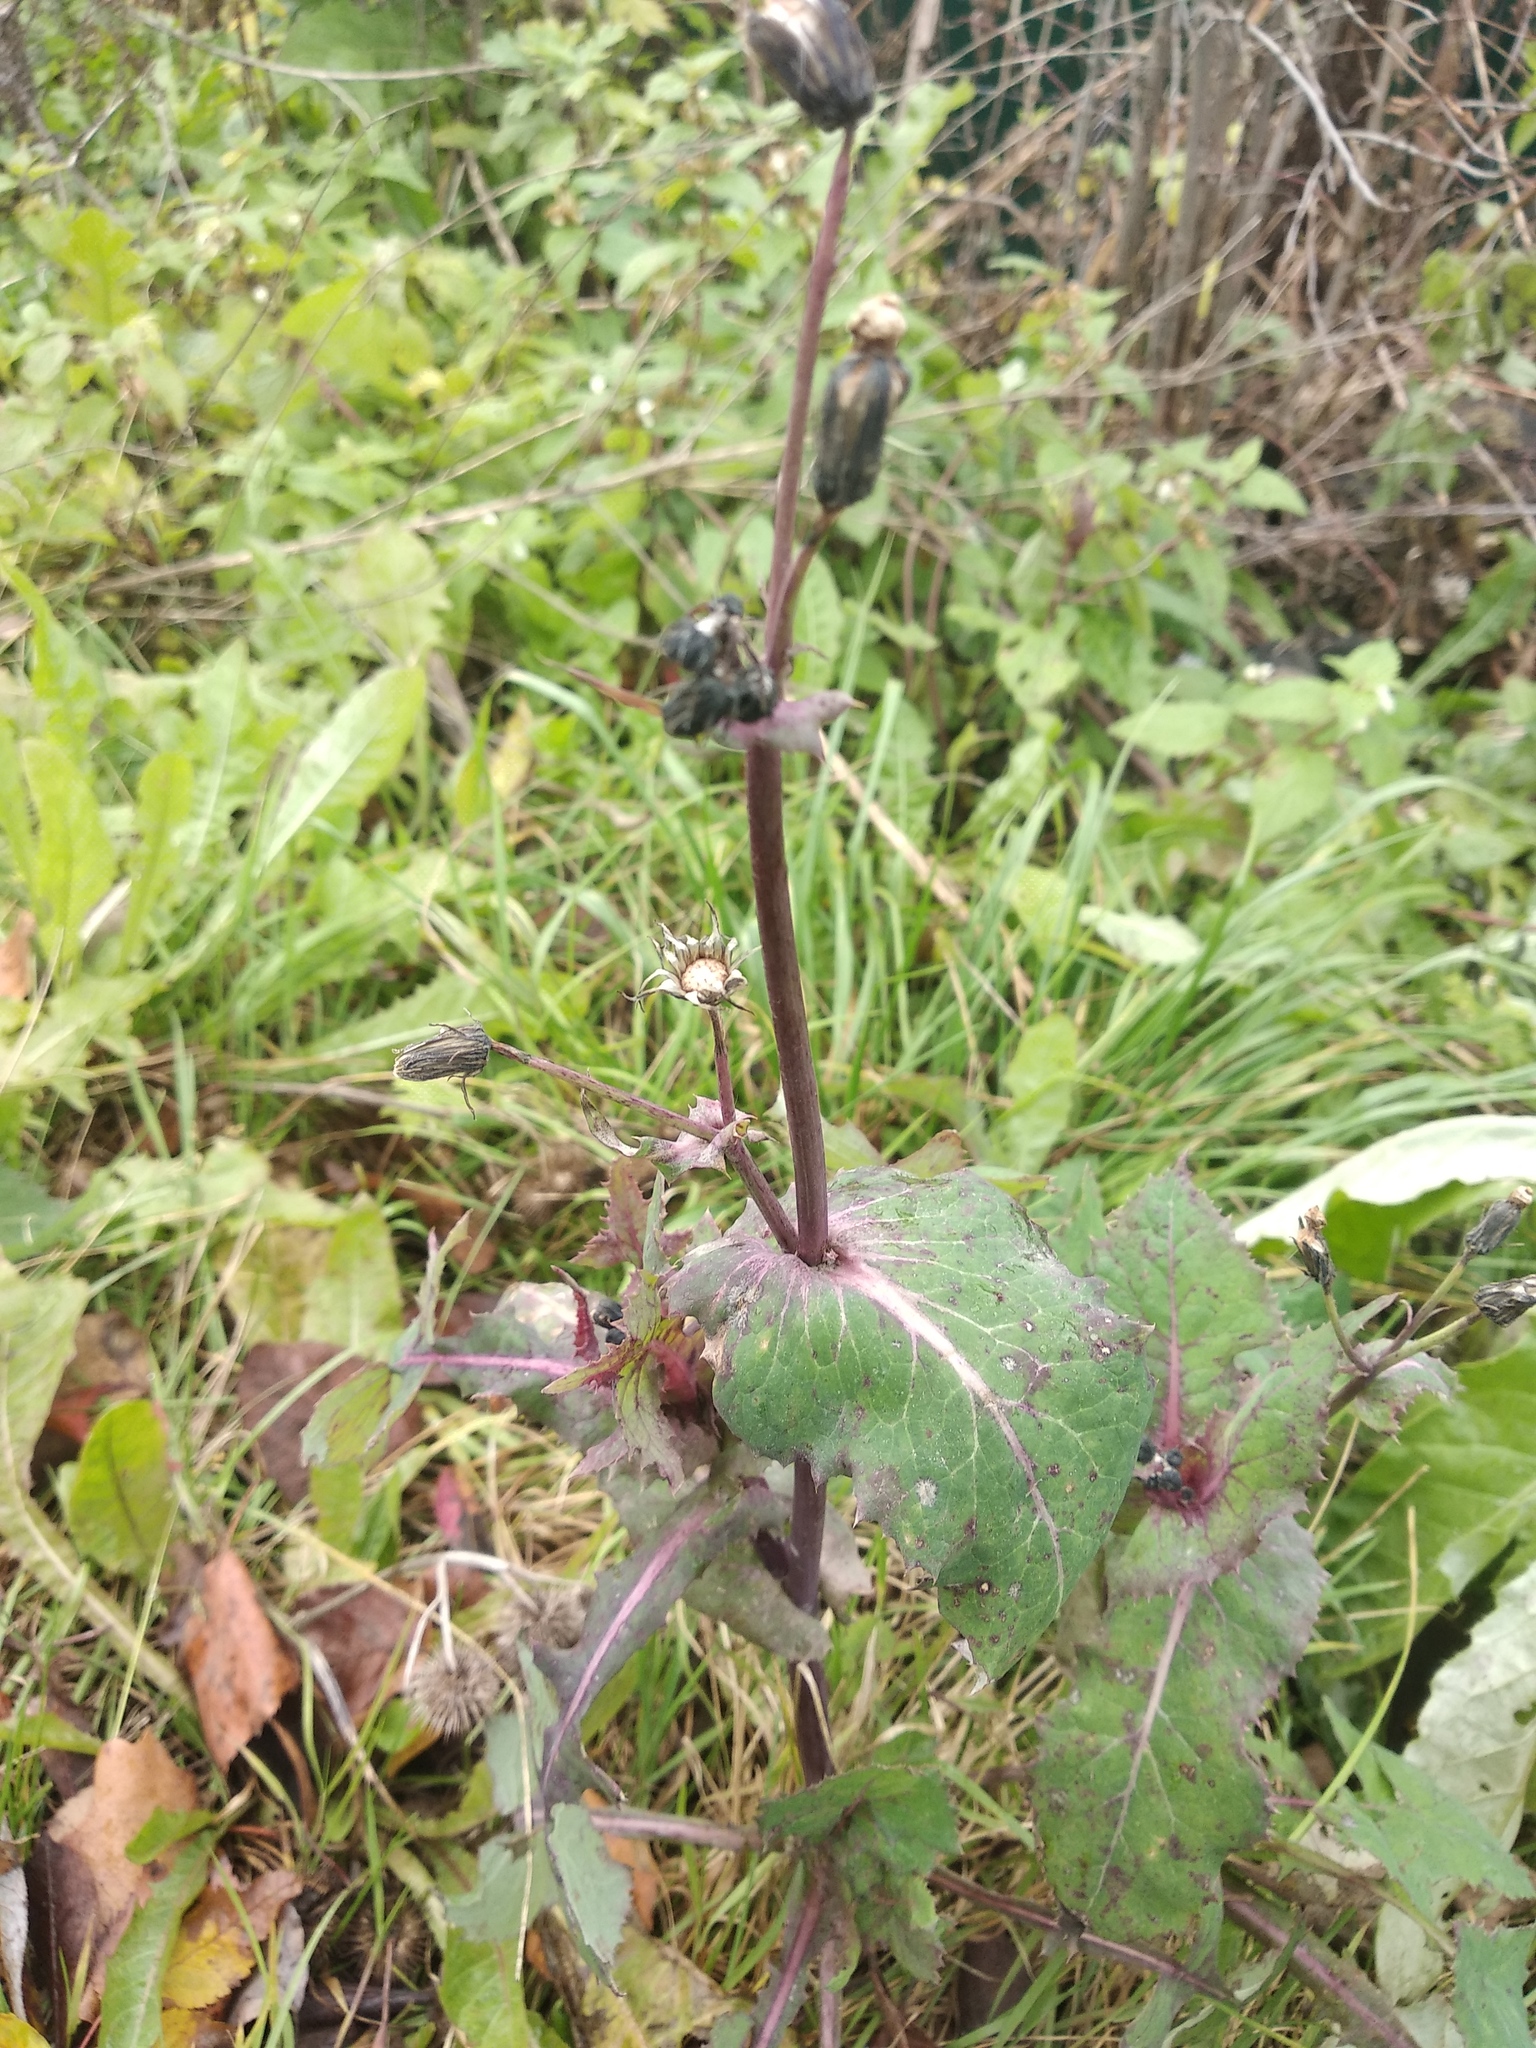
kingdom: Plantae
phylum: Tracheophyta
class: Magnoliopsida
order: Asterales
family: Asteraceae
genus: Sonchus
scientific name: Sonchus oleraceus
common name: Common sowthistle
